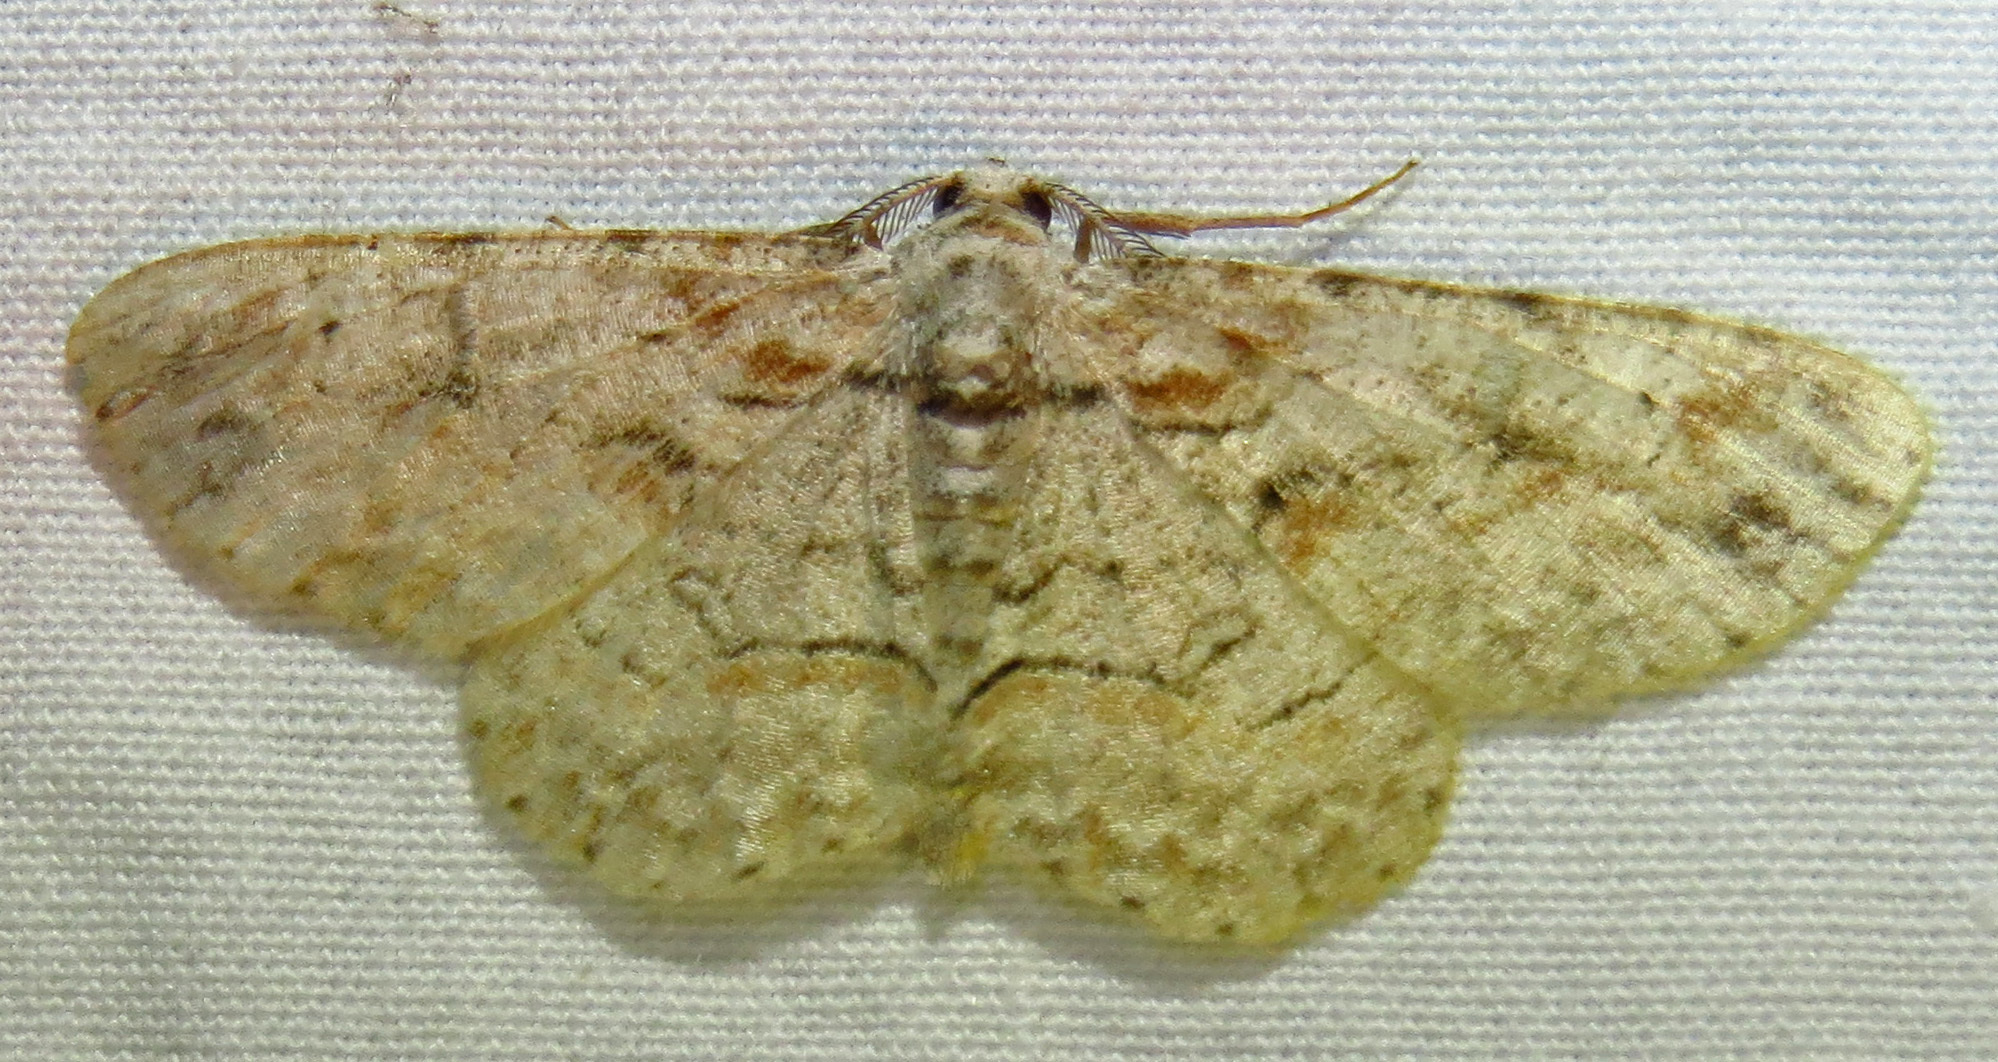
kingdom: Animalia
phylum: Arthropoda
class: Insecta
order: Lepidoptera
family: Geometridae
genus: Iridopsis
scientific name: Iridopsis defectaria
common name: Brown-shaded gray
